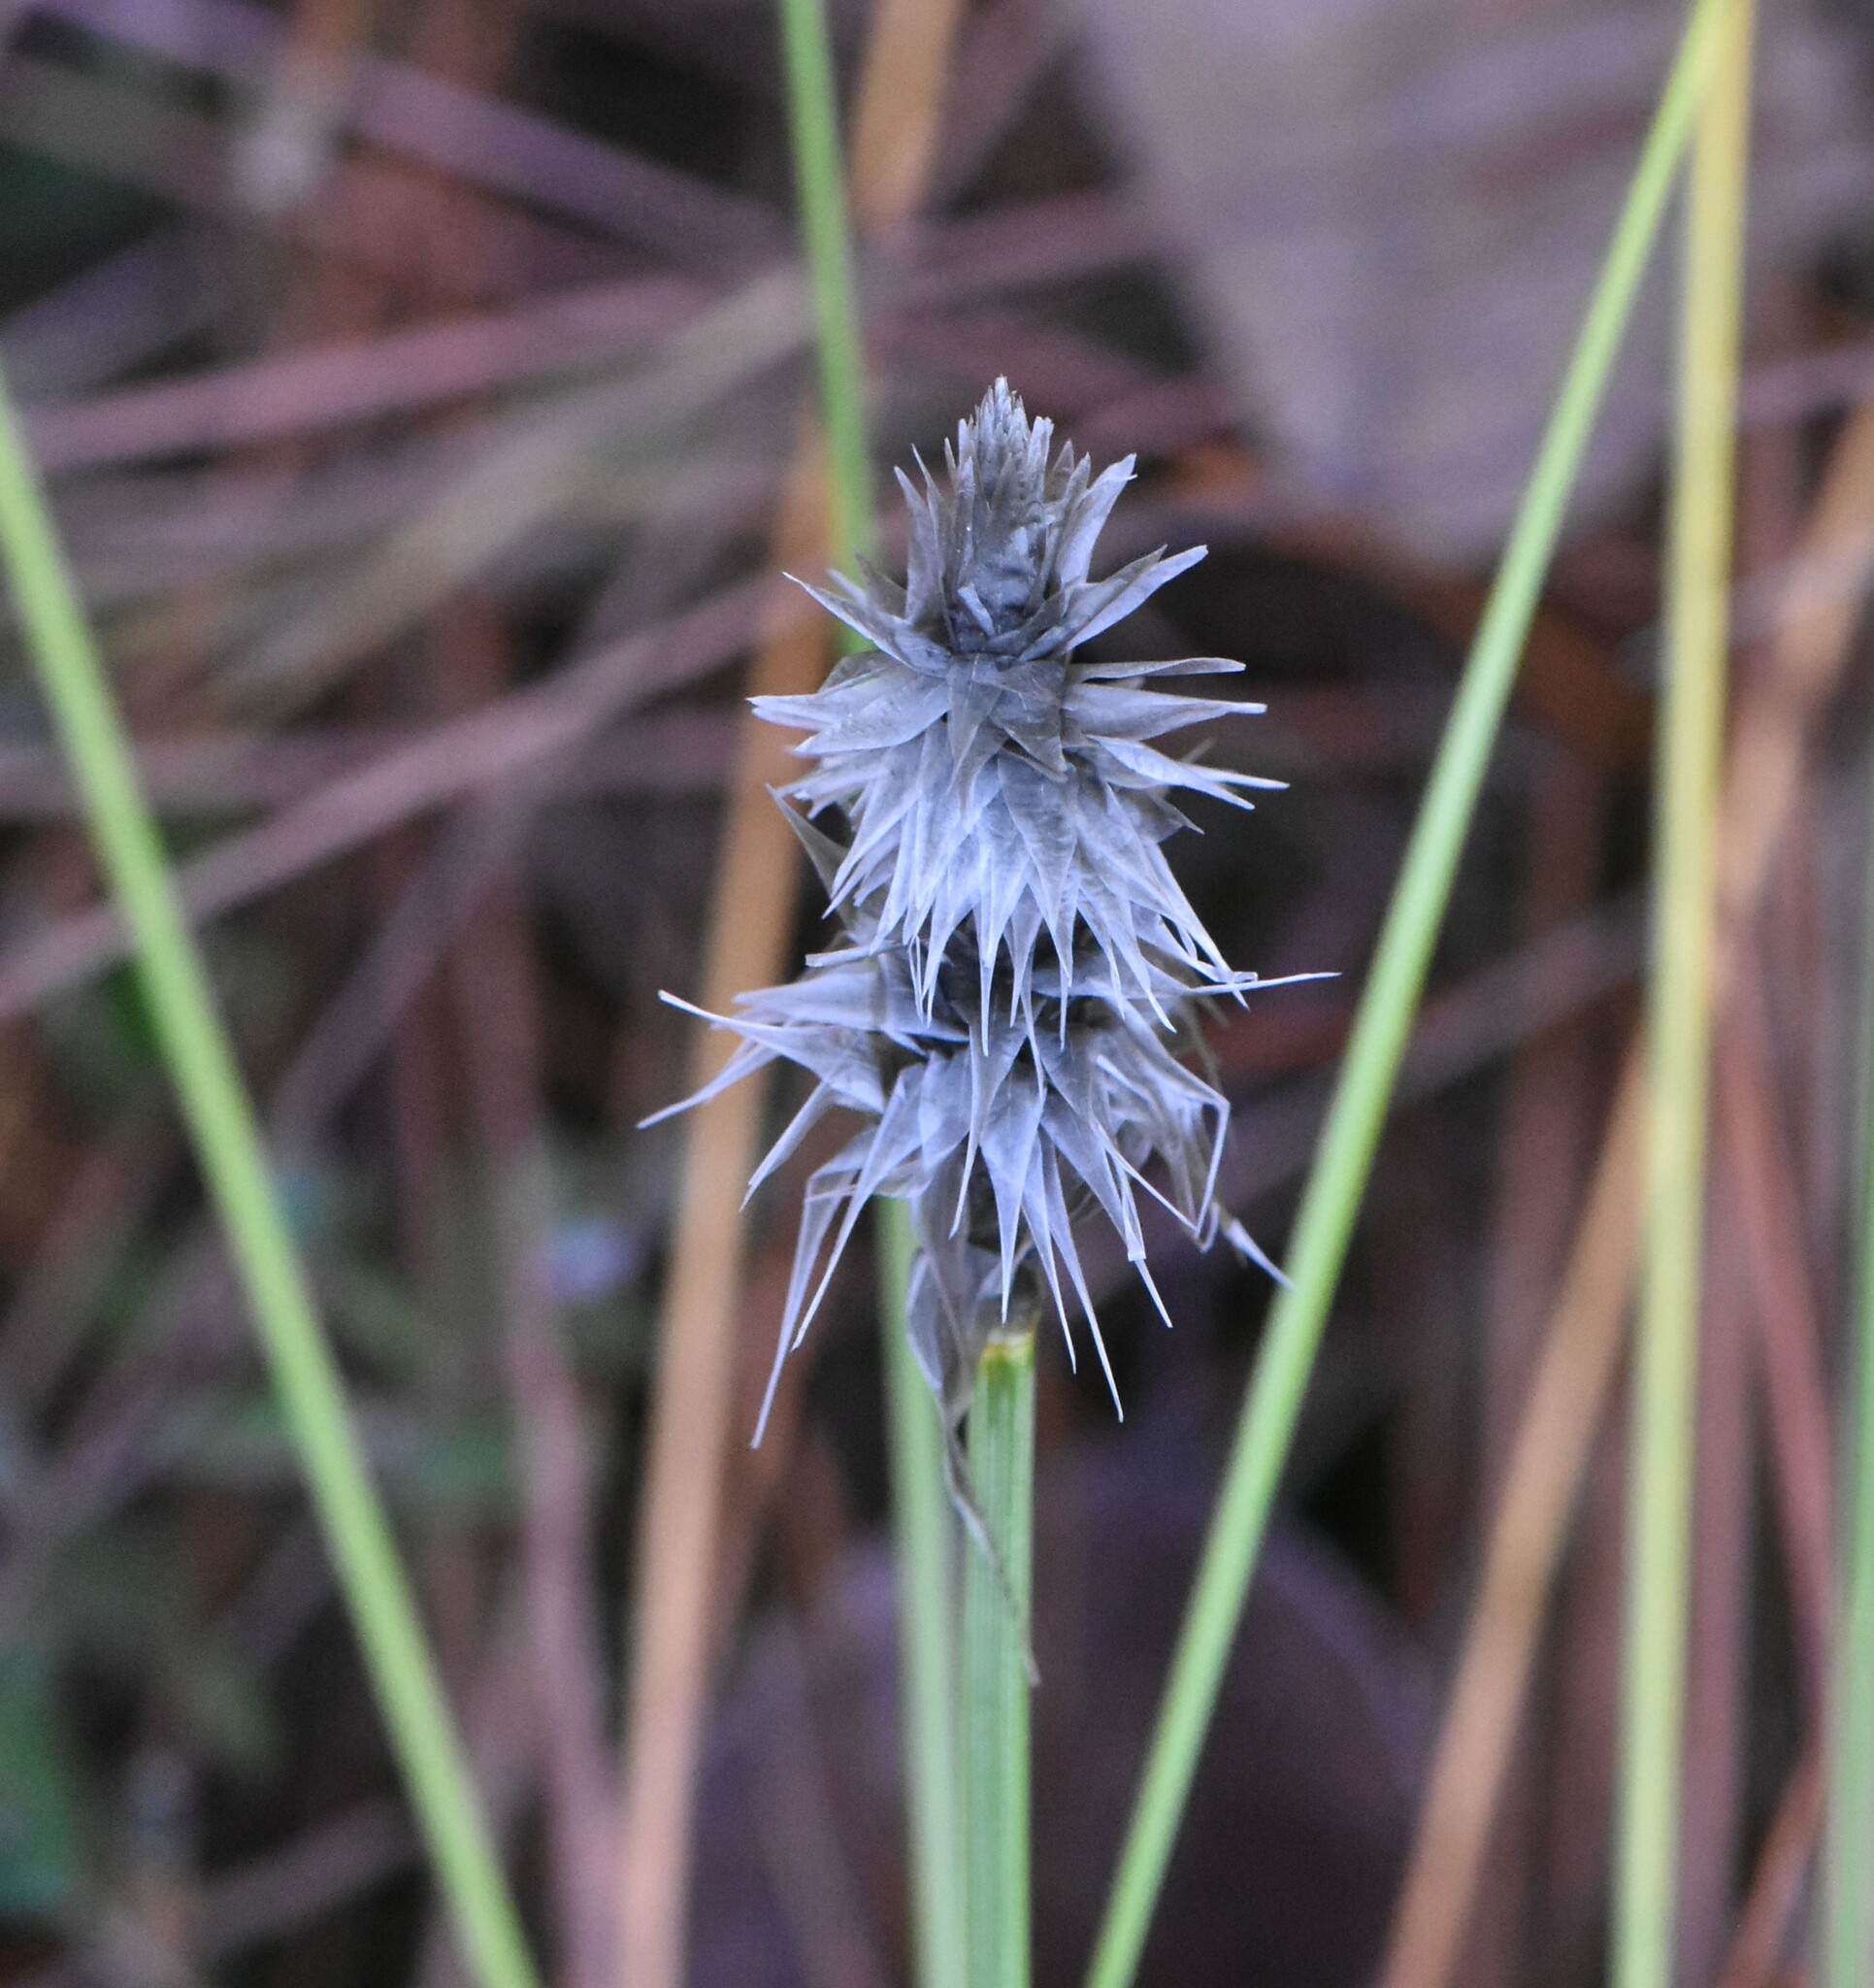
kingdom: Plantae
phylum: Tracheophyta
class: Liliopsida
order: Poales
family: Cyperaceae
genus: Eriophorum
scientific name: Eriophorum vaginatum
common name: Hare's-tail cottongrass
